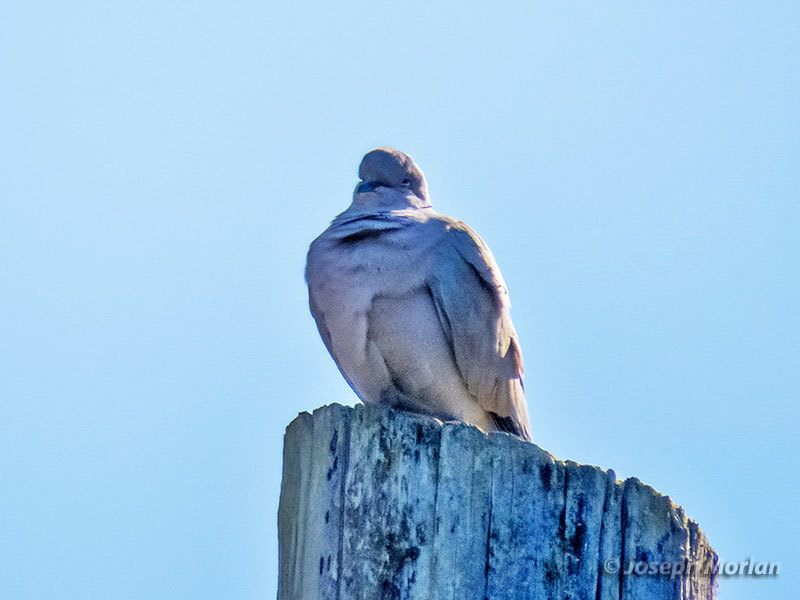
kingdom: Animalia
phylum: Chordata
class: Aves
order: Columbiformes
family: Columbidae
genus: Streptopelia
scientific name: Streptopelia decaocto
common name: Eurasian collared dove
